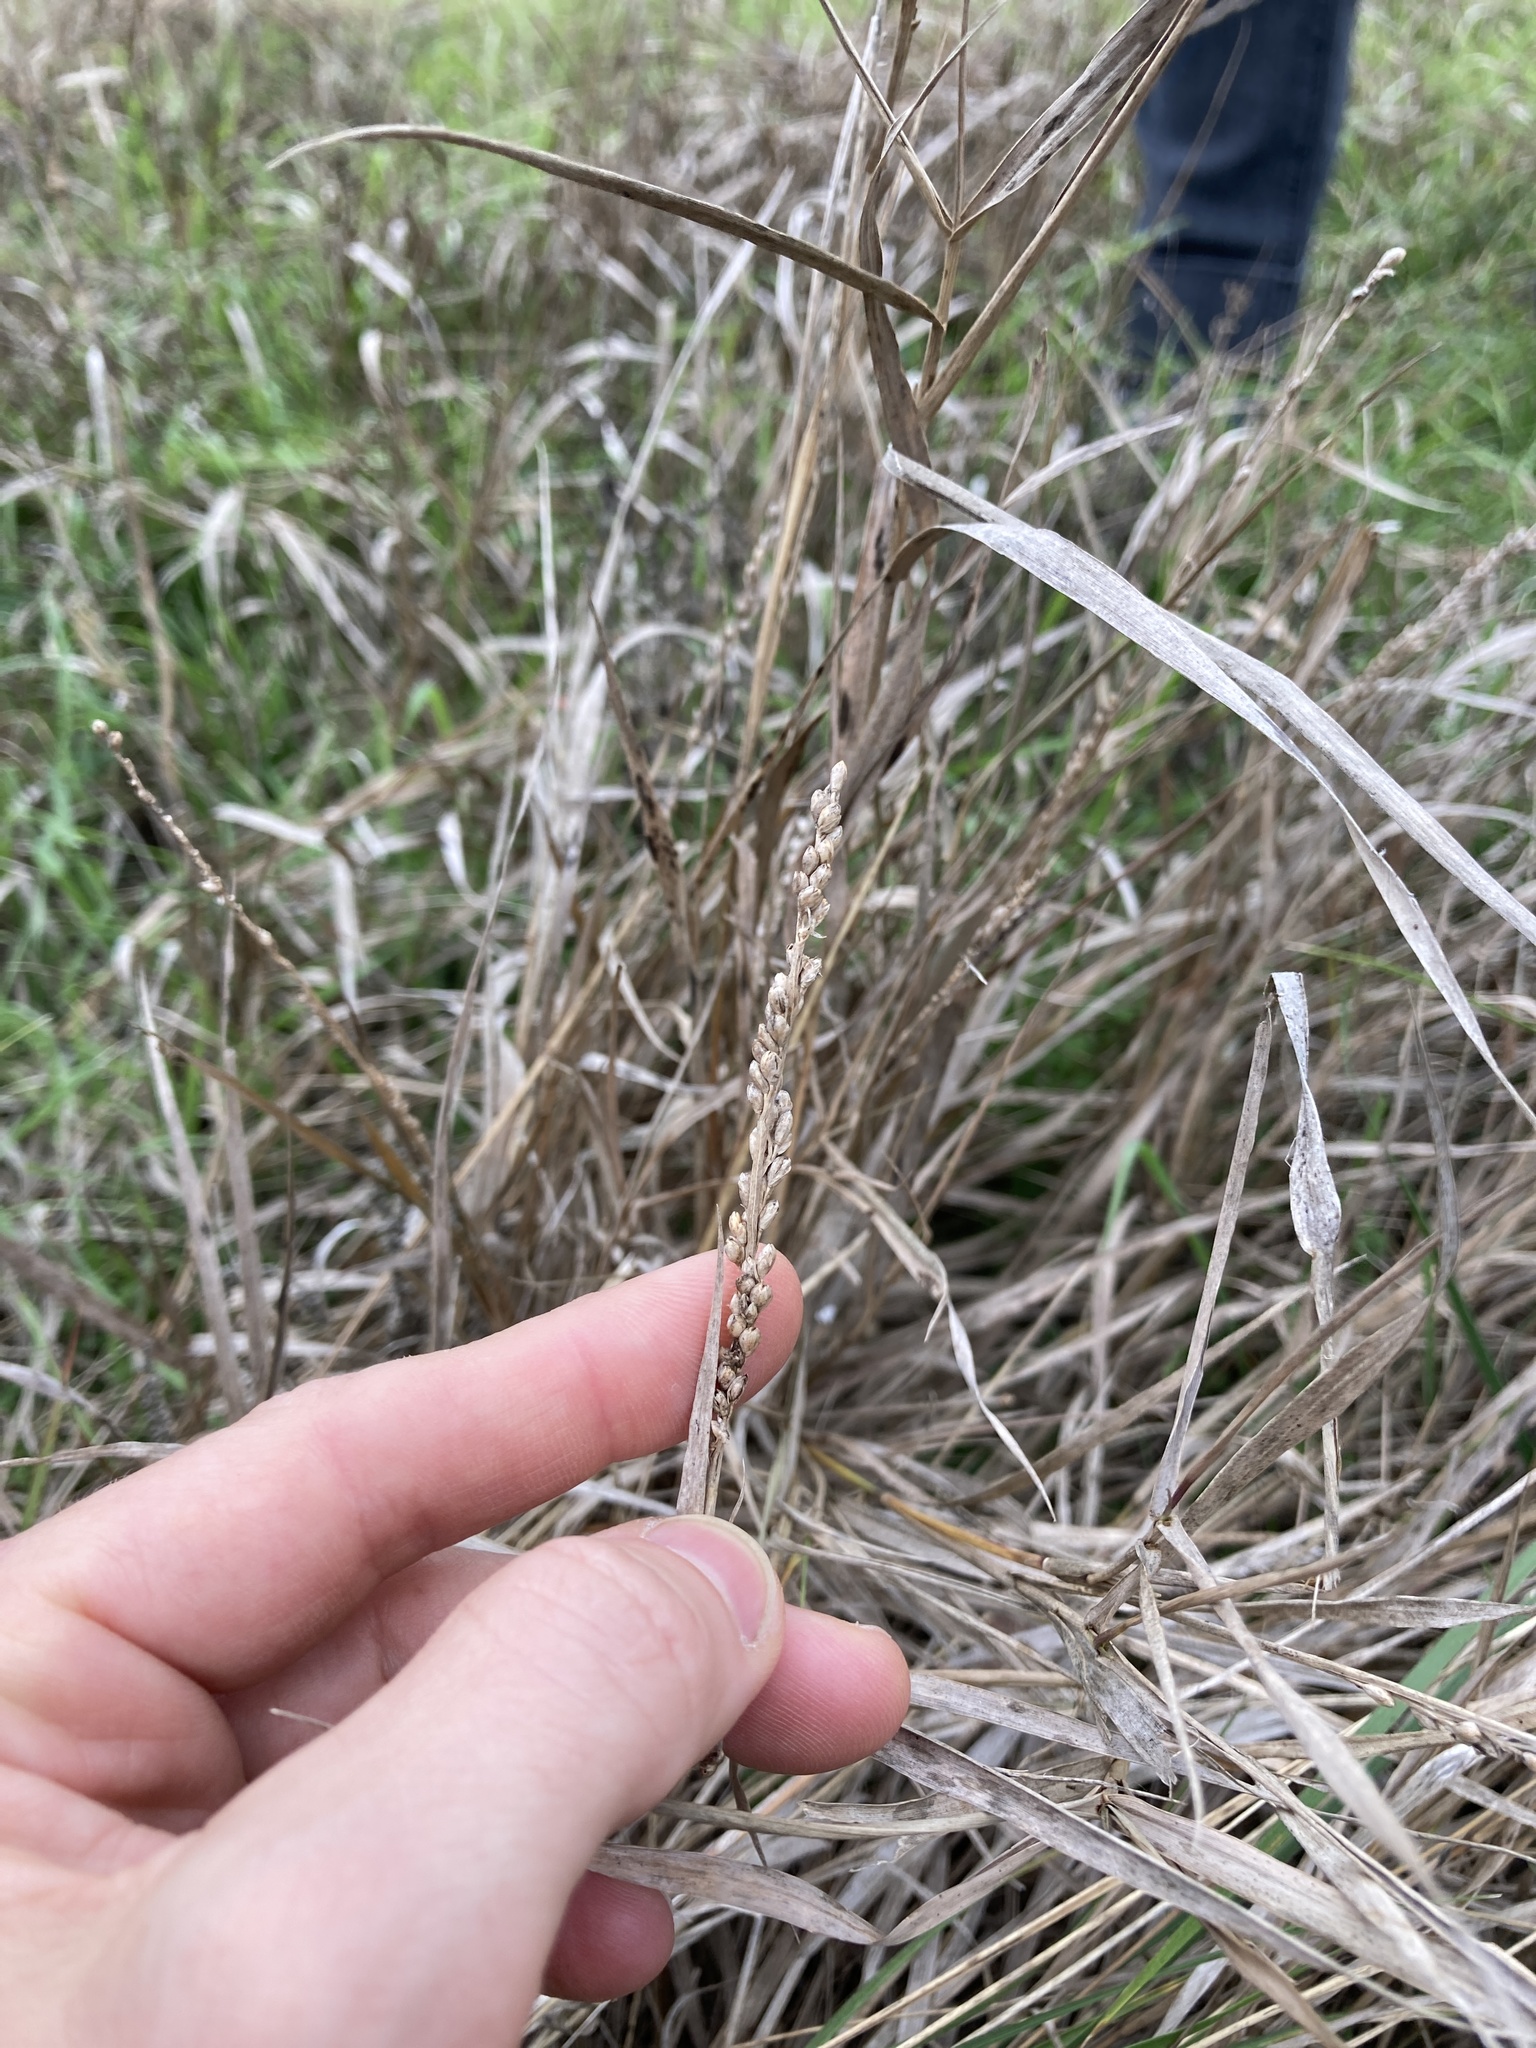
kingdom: Plantae
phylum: Tracheophyta
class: Liliopsida
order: Poales
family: Poaceae
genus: Hopia
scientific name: Hopia obtusa
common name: Vine-mesquite
